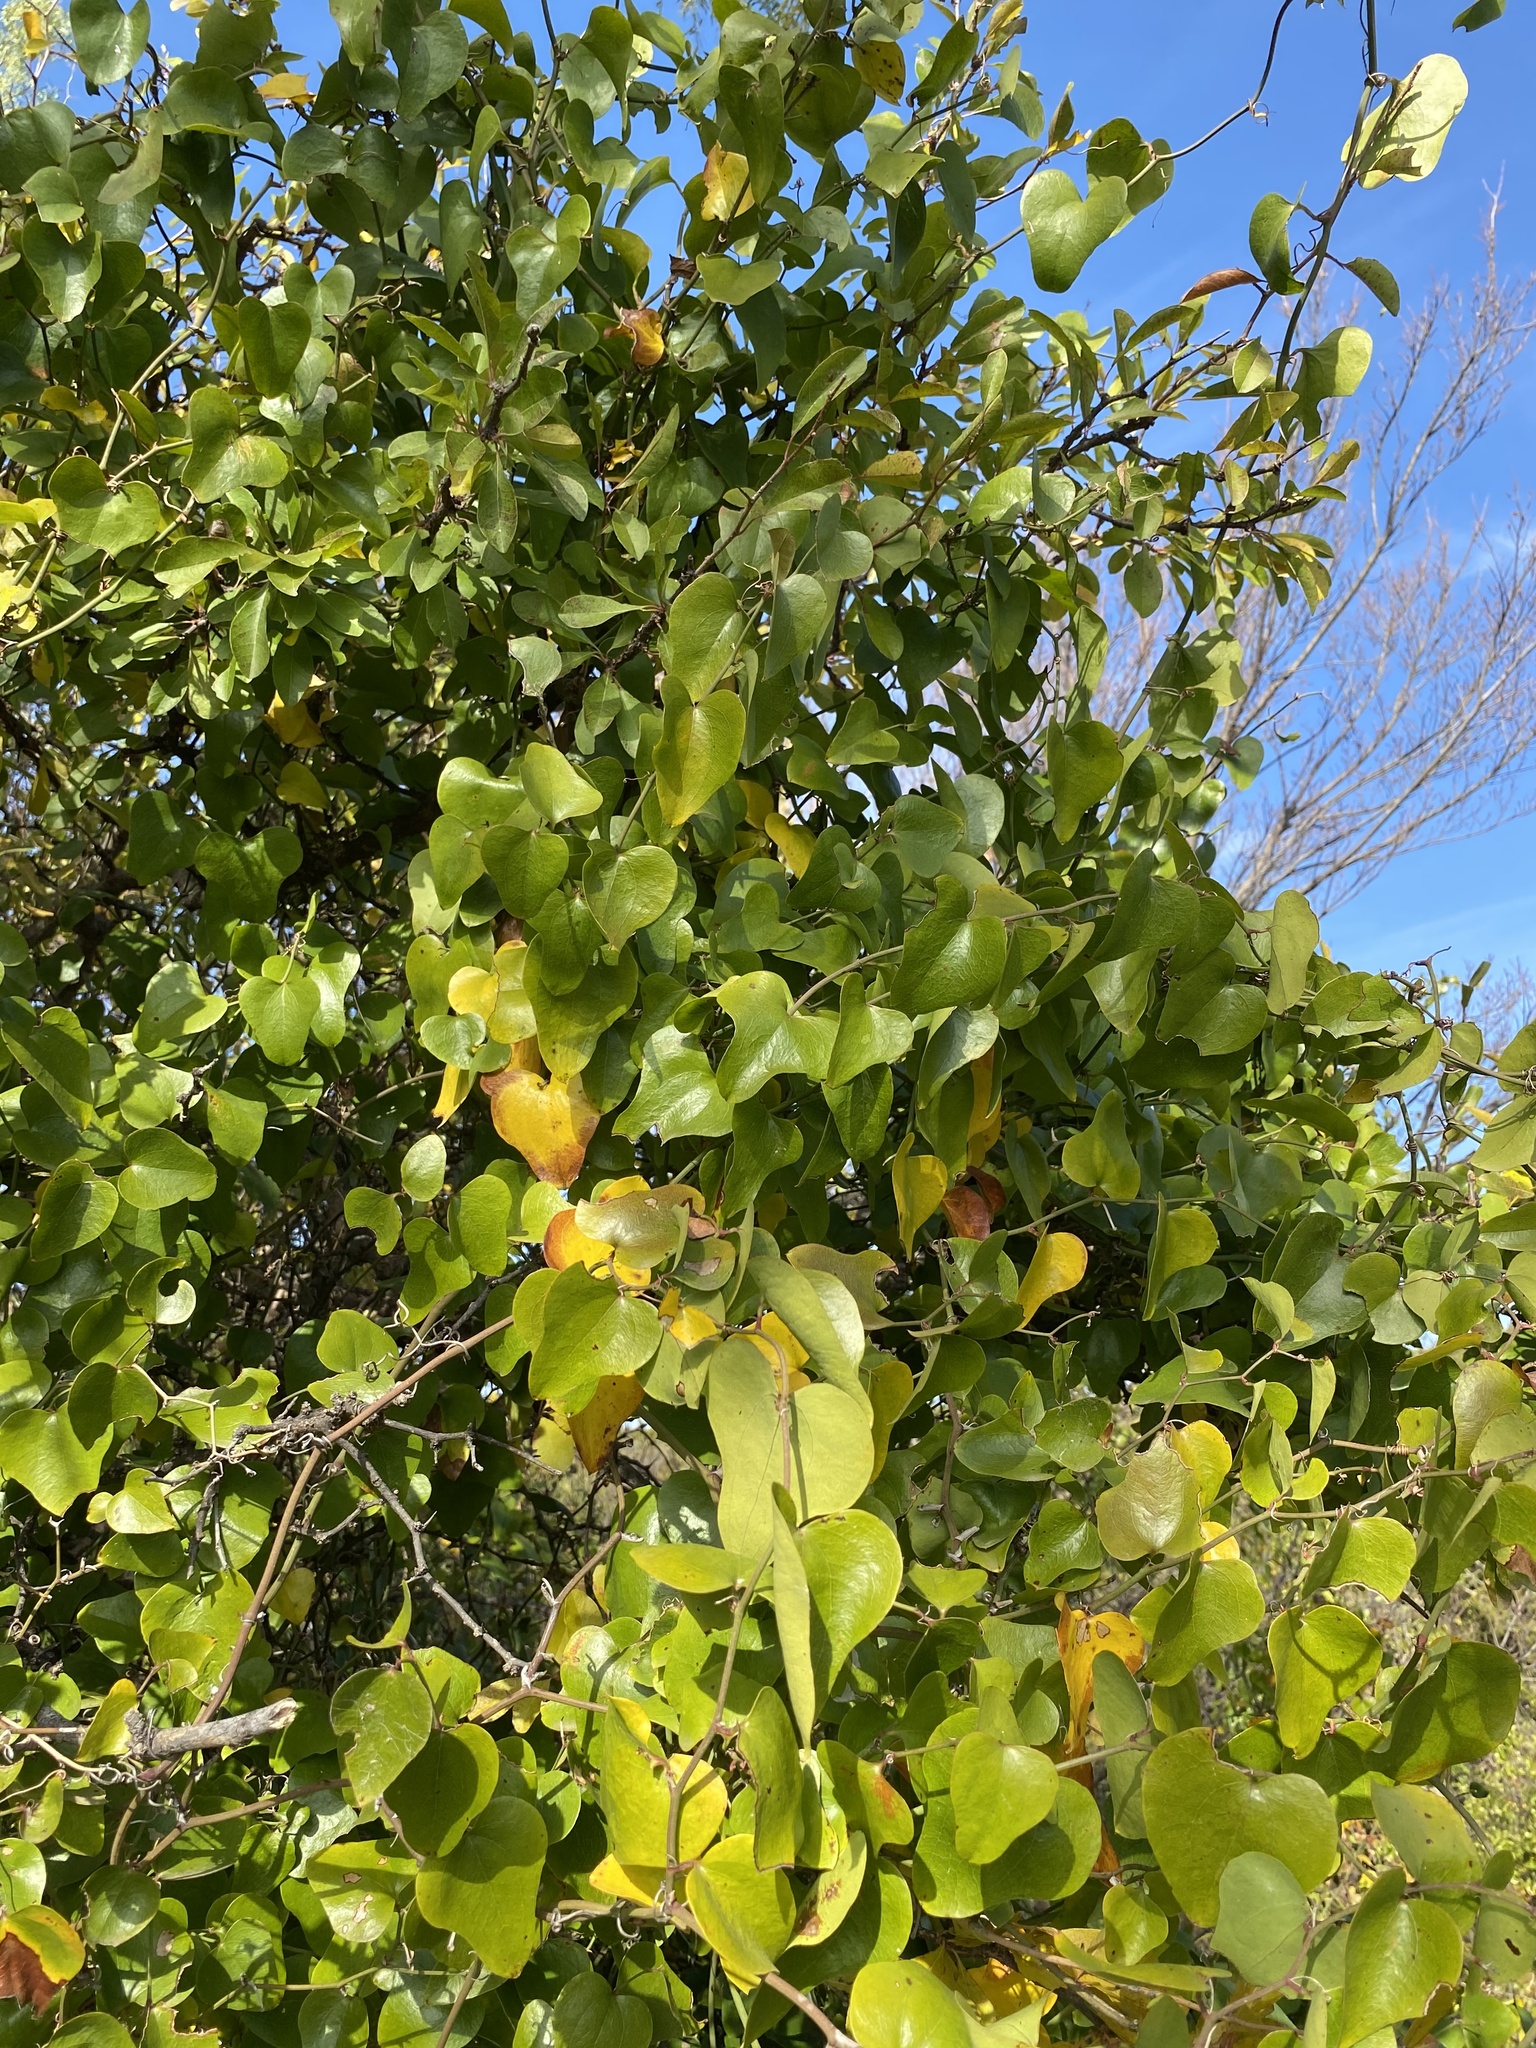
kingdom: Plantae
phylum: Tracheophyta
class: Liliopsida
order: Liliales
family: Smilacaceae
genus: Smilax
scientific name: Smilax bona-nox
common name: Catbrier
